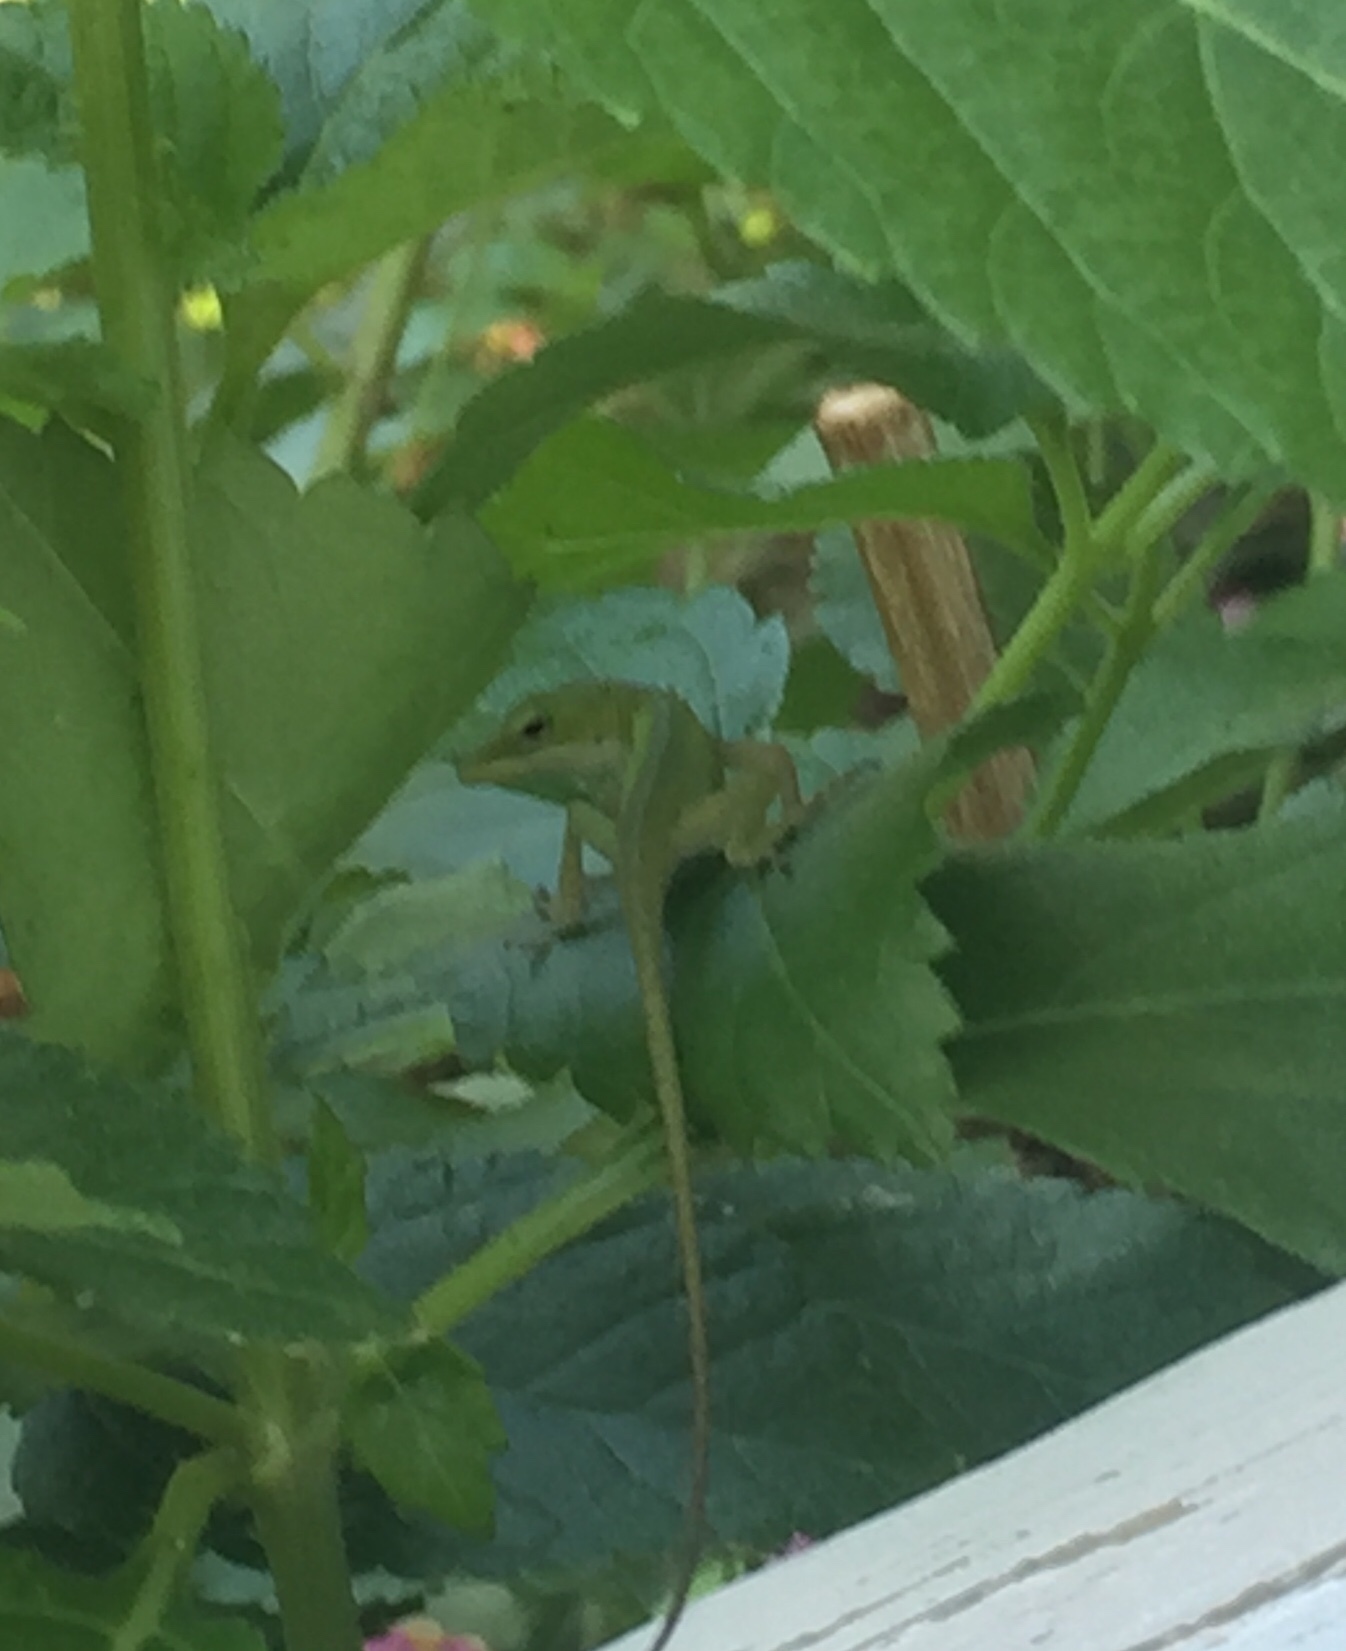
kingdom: Animalia
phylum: Chordata
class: Squamata
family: Dactyloidae
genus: Anolis
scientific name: Anolis carolinensis
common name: Green anole
